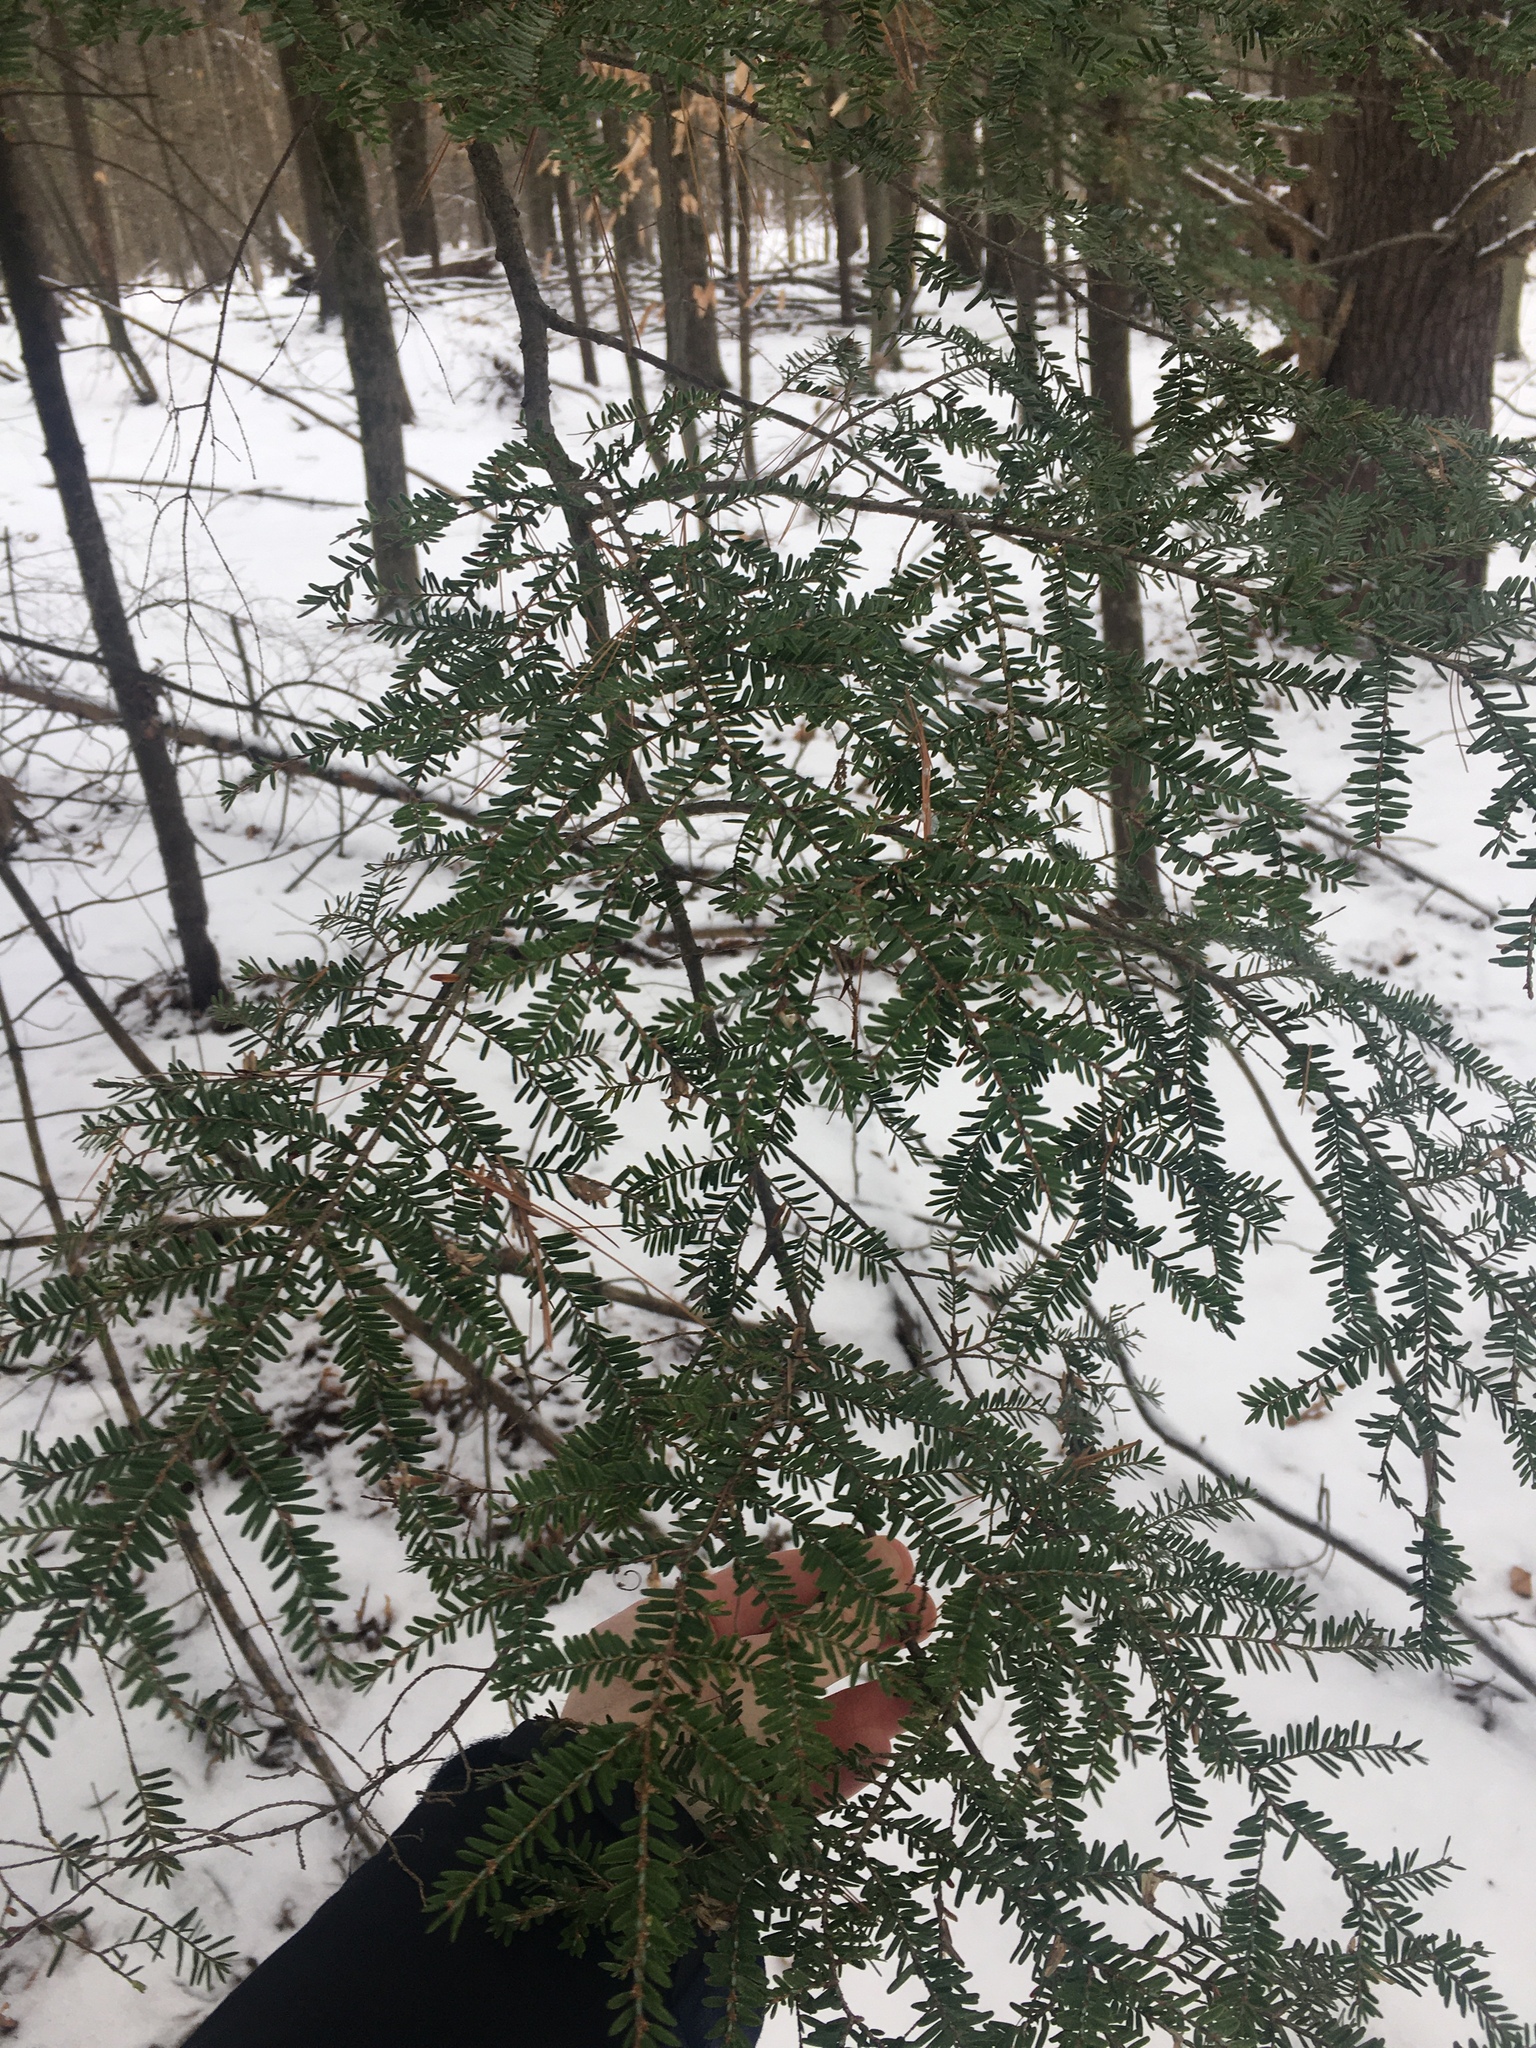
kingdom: Plantae
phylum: Tracheophyta
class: Pinopsida
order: Pinales
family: Pinaceae
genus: Tsuga
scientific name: Tsuga canadensis
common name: Eastern hemlock
